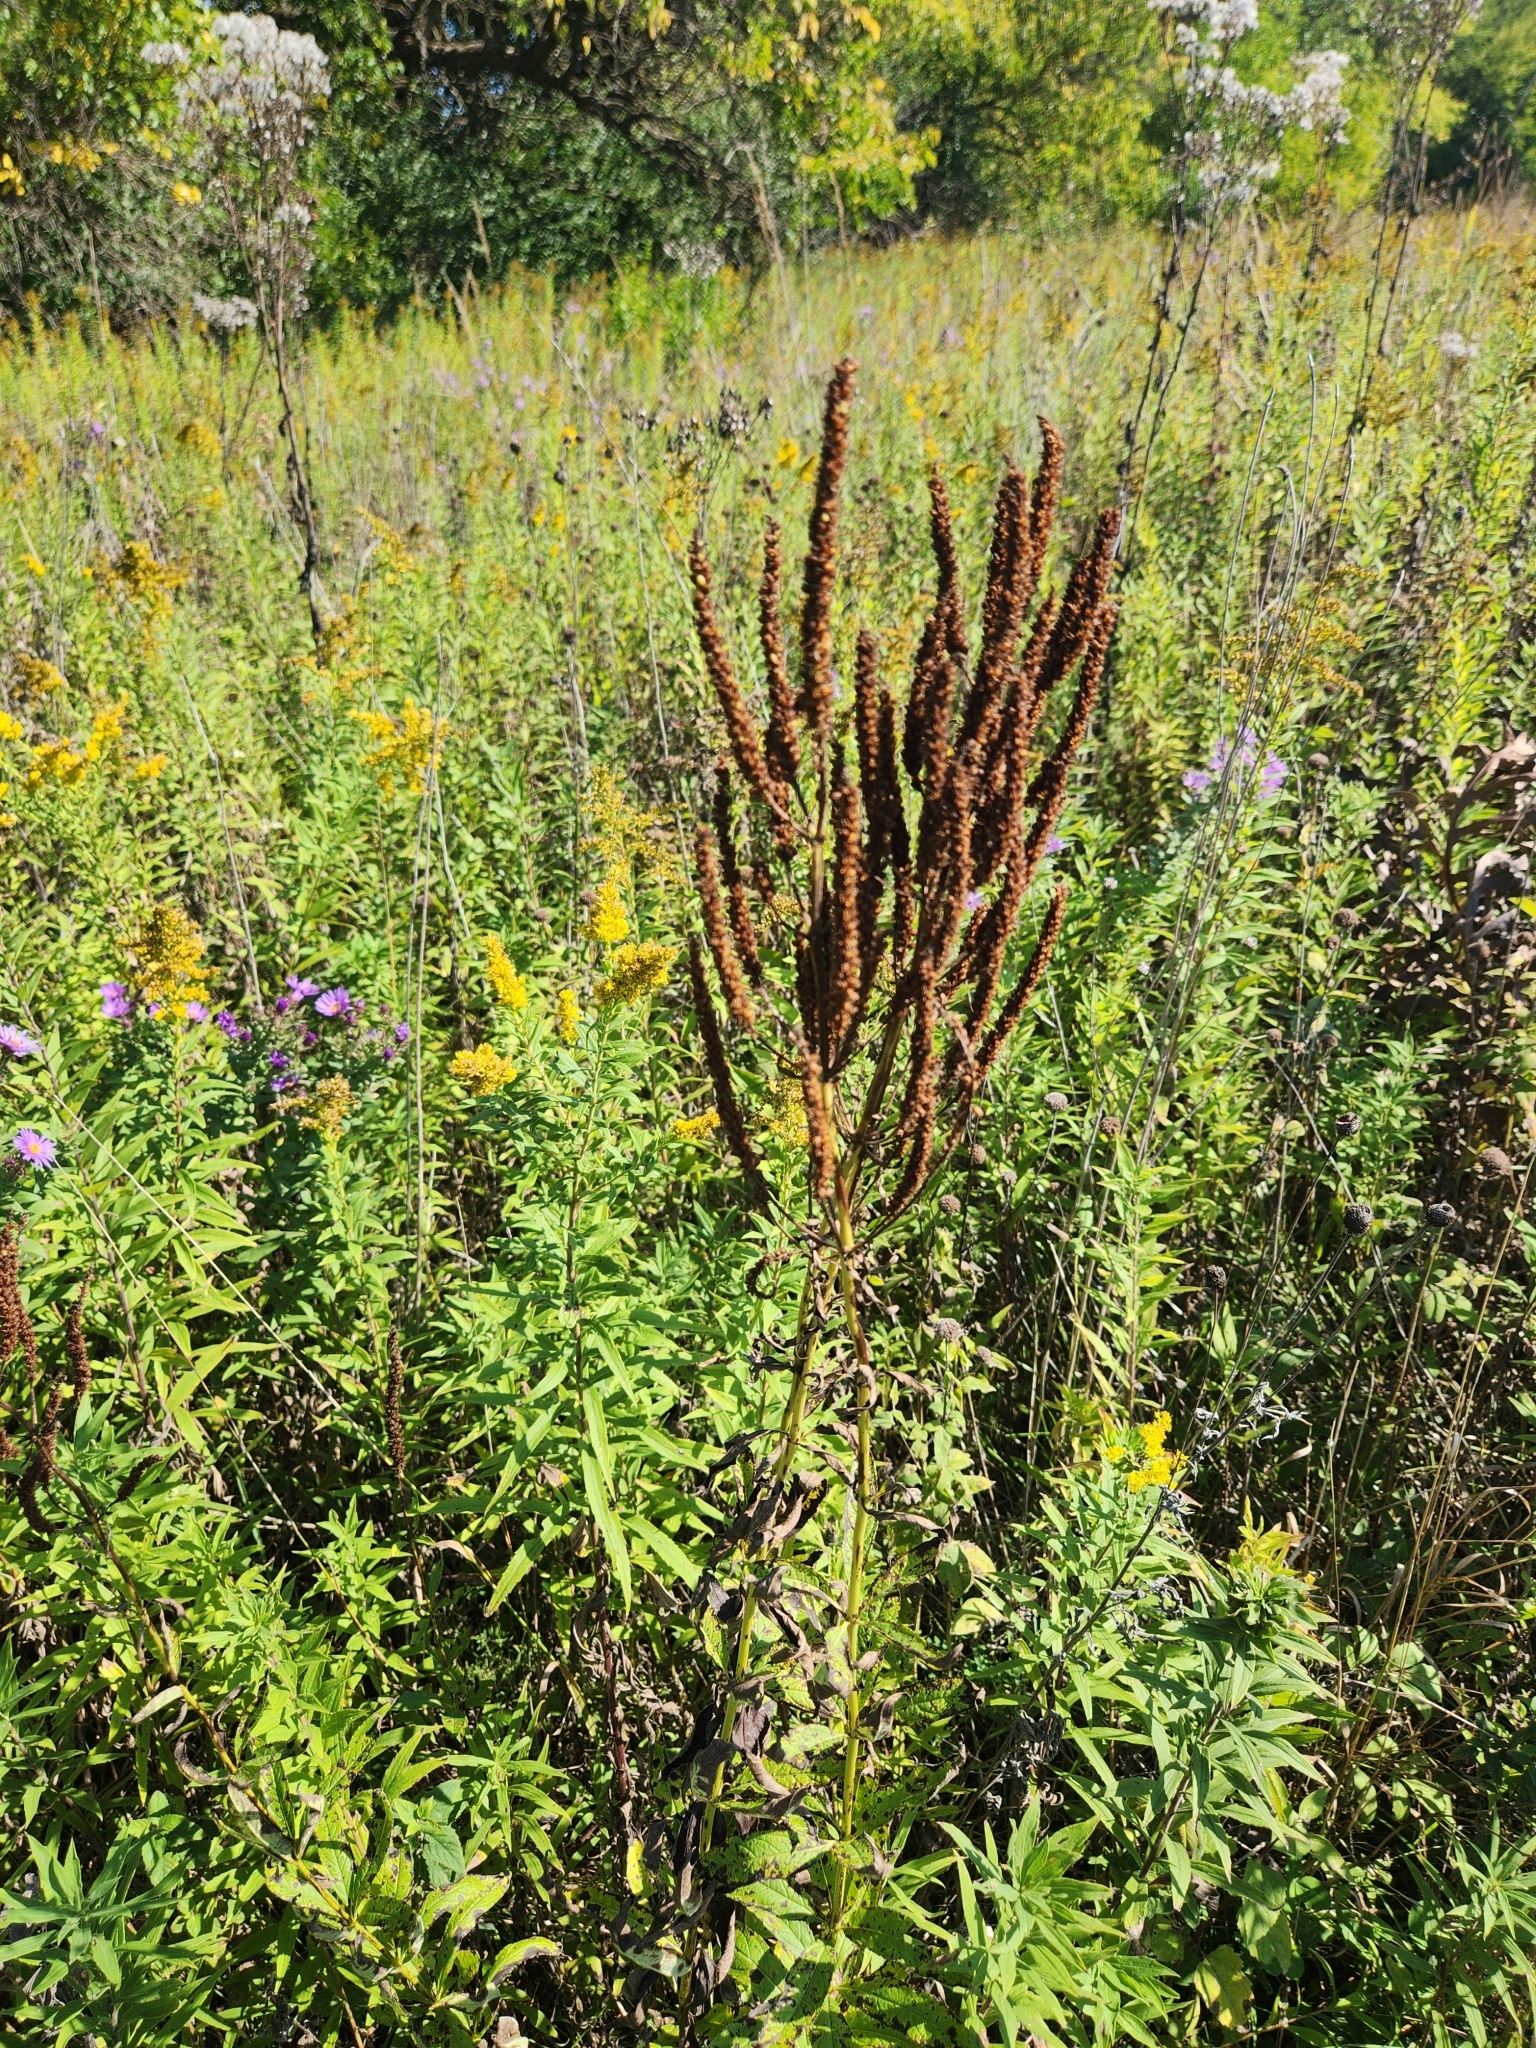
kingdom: Plantae
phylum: Tracheophyta
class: Magnoliopsida
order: Lamiales
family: Plantaginaceae
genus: Veronicastrum
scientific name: Veronicastrum virginicum
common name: Blackroot
